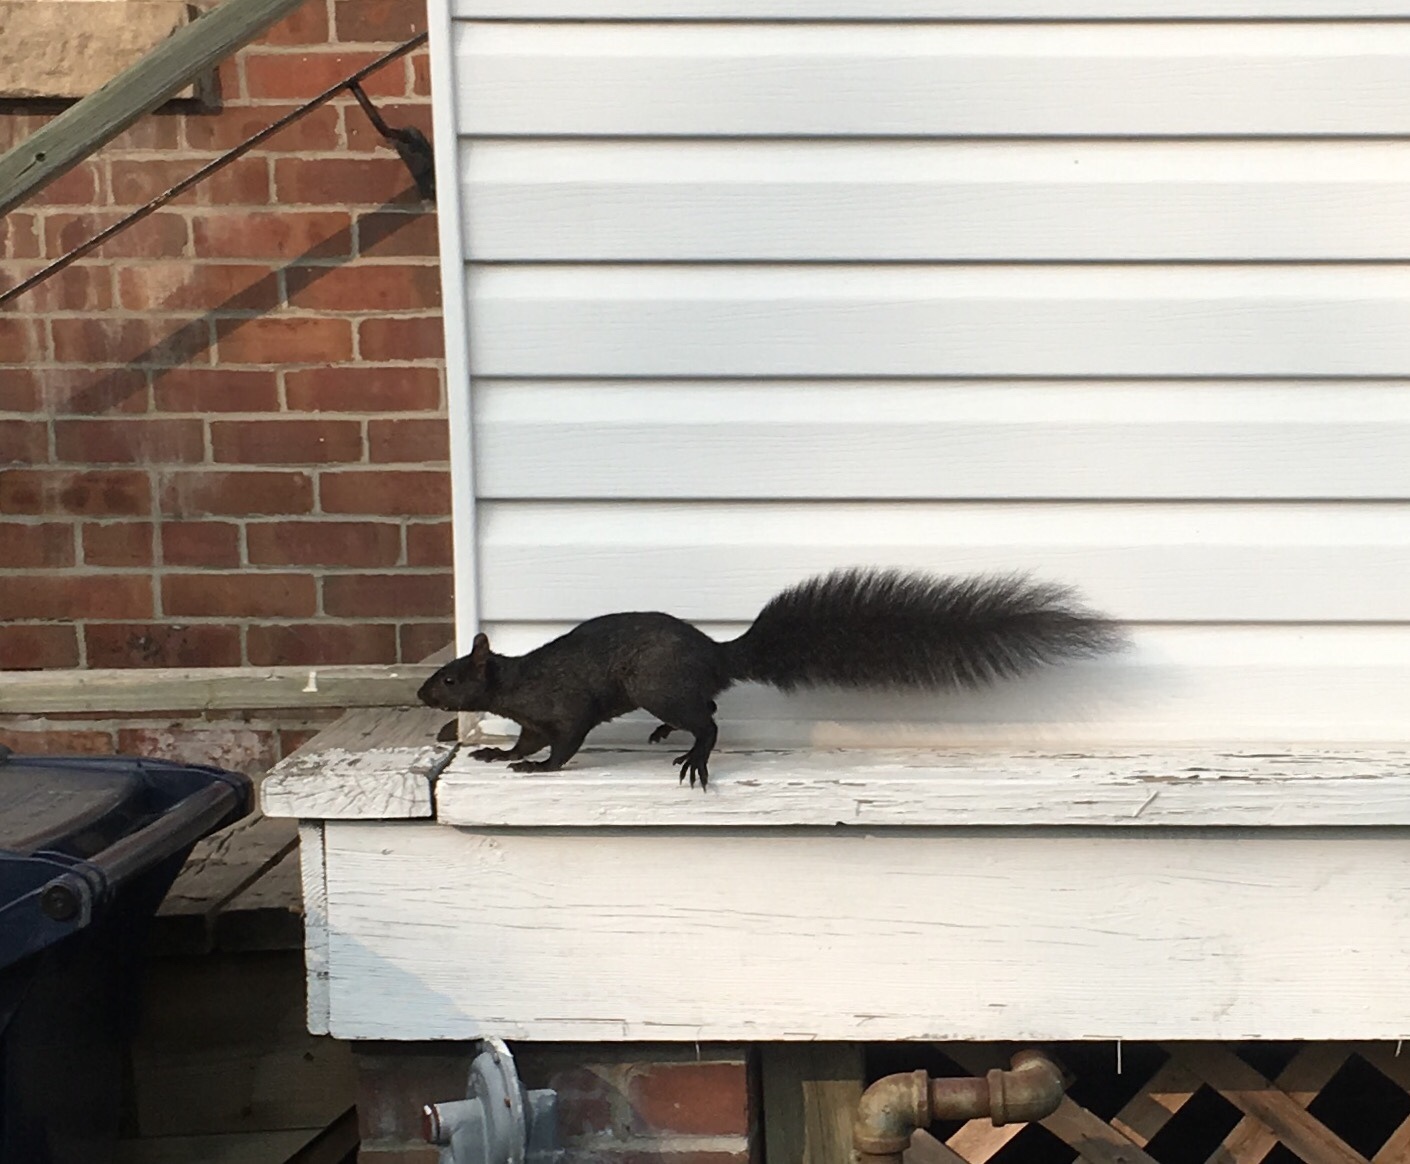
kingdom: Animalia
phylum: Chordata
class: Mammalia
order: Rodentia
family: Sciuridae
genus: Sciurus
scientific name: Sciurus carolinensis
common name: Eastern gray squirrel
